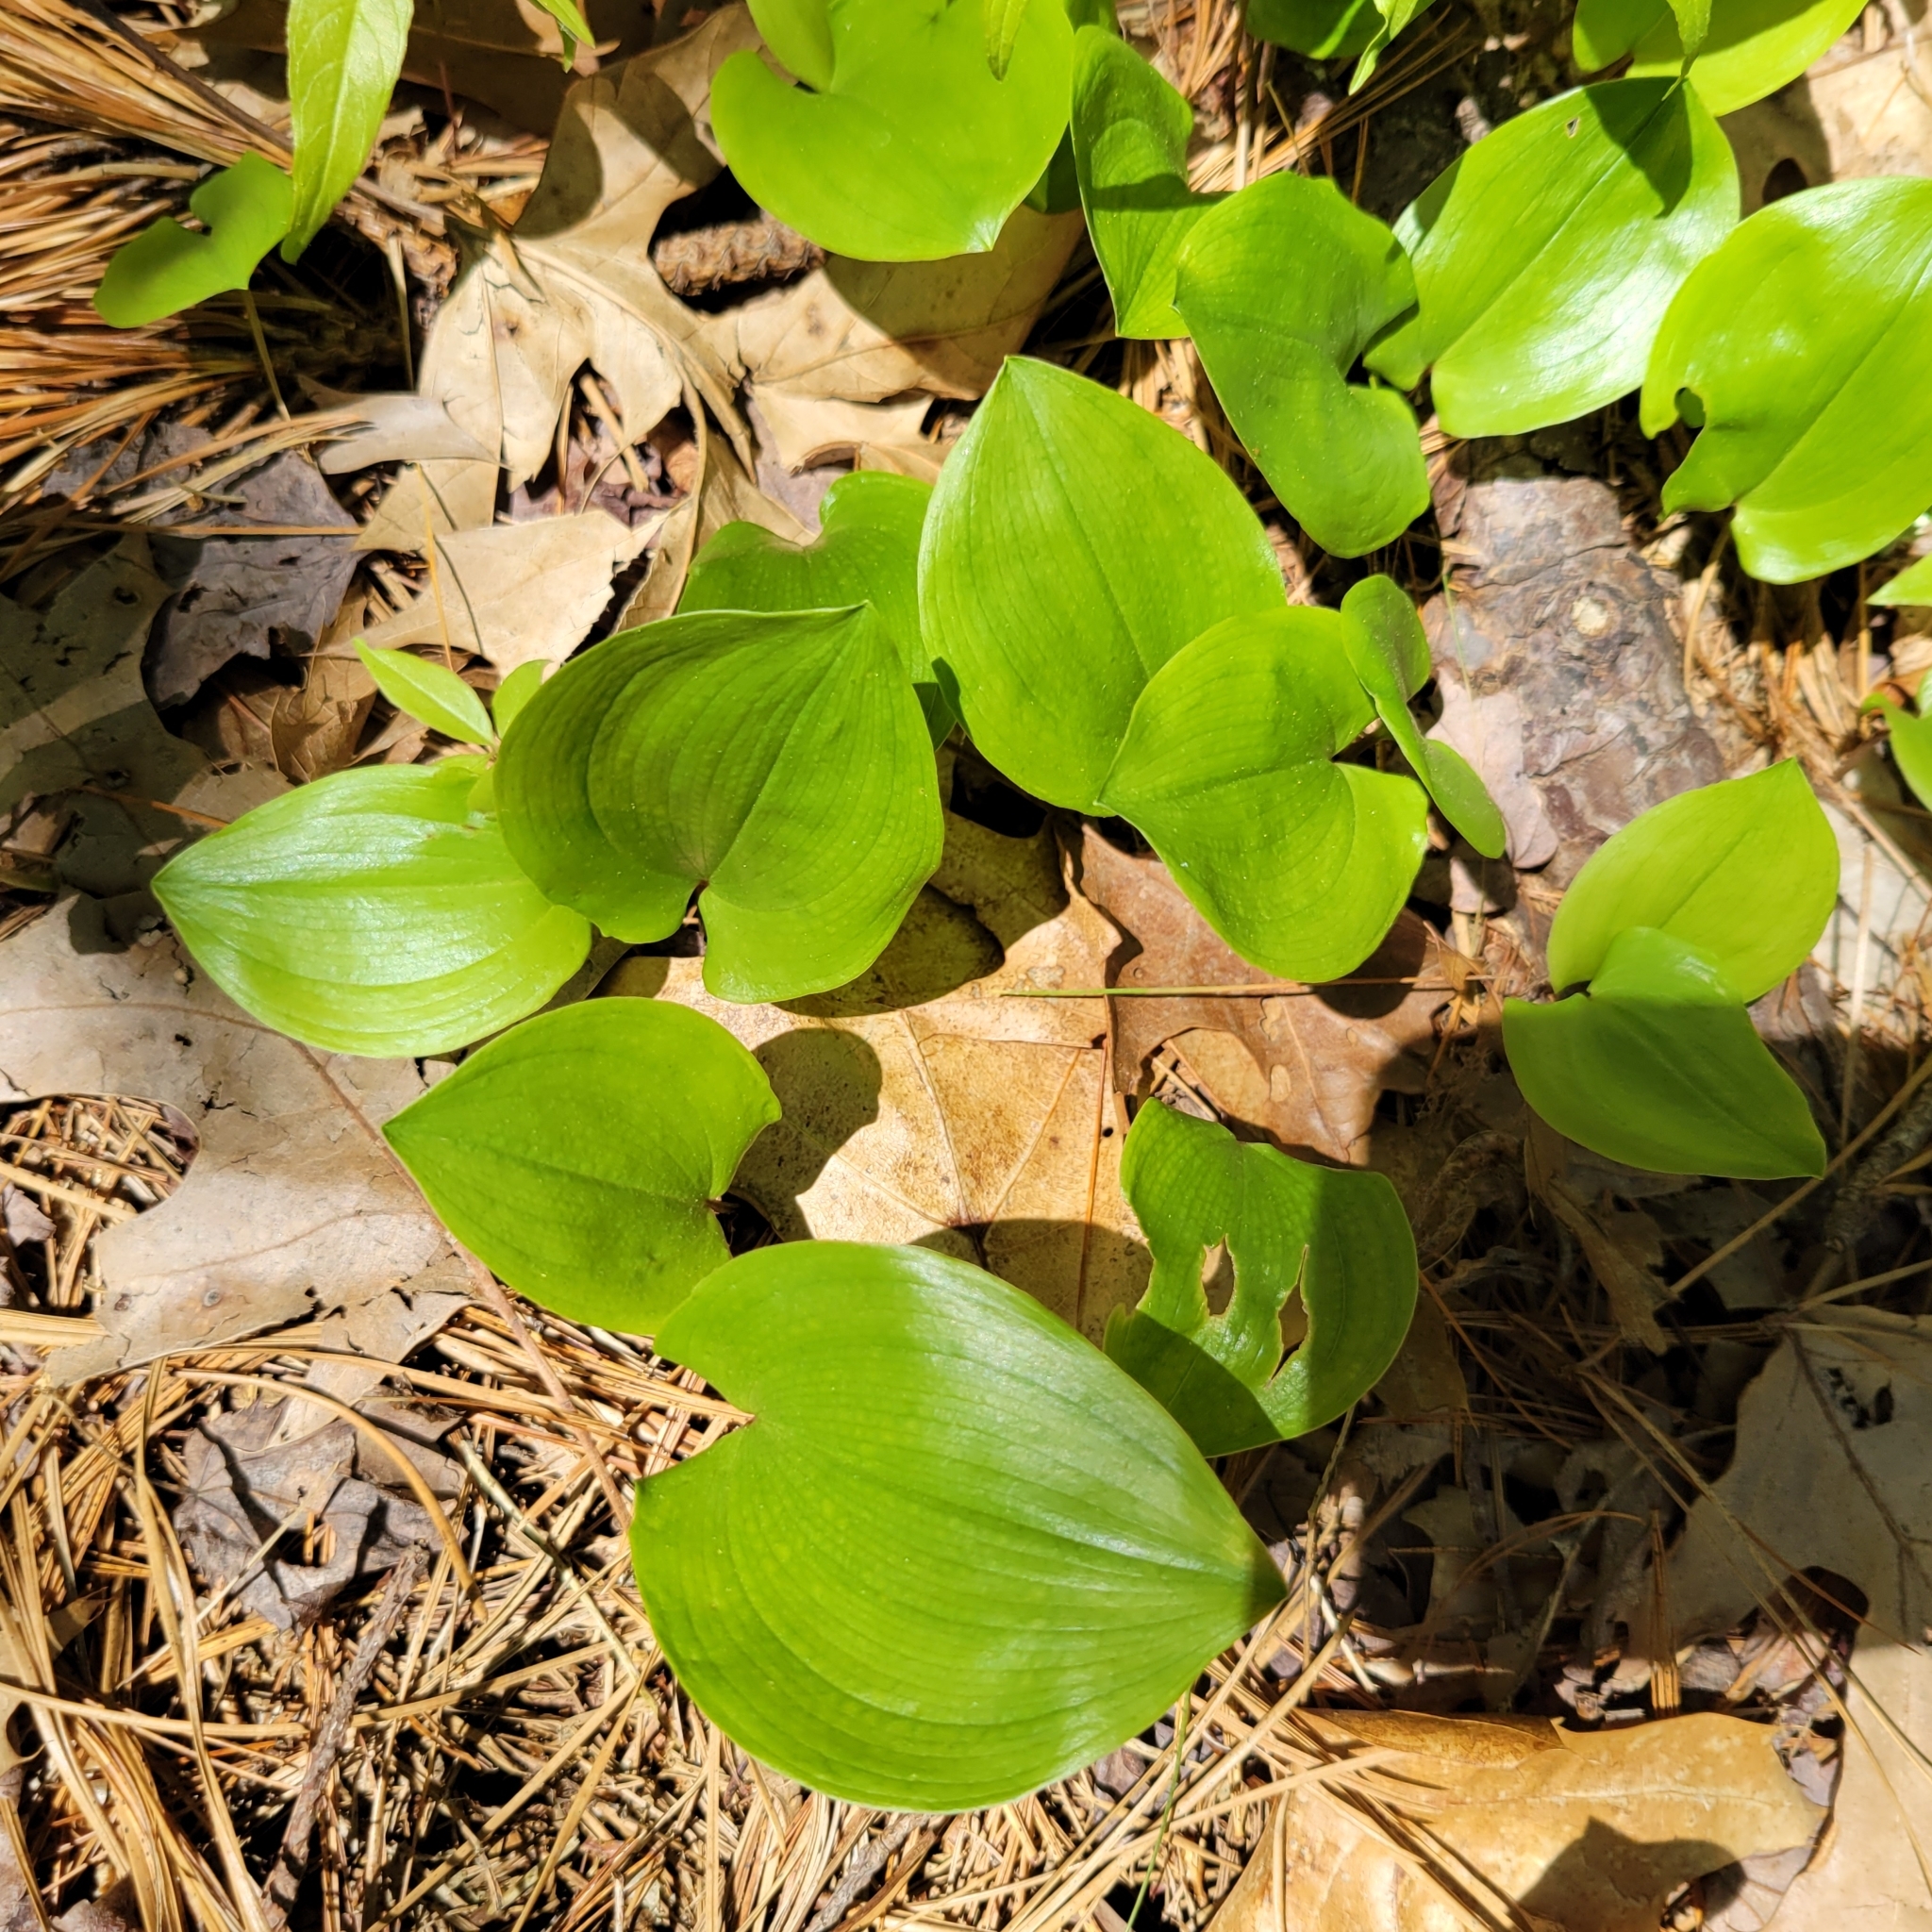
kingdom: Plantae
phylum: Tracheophyta
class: Liliopsida
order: Asparagales
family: Asparagaceae
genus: Maianthemum
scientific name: Maianthemum canadense
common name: False lily-of-the-valley
